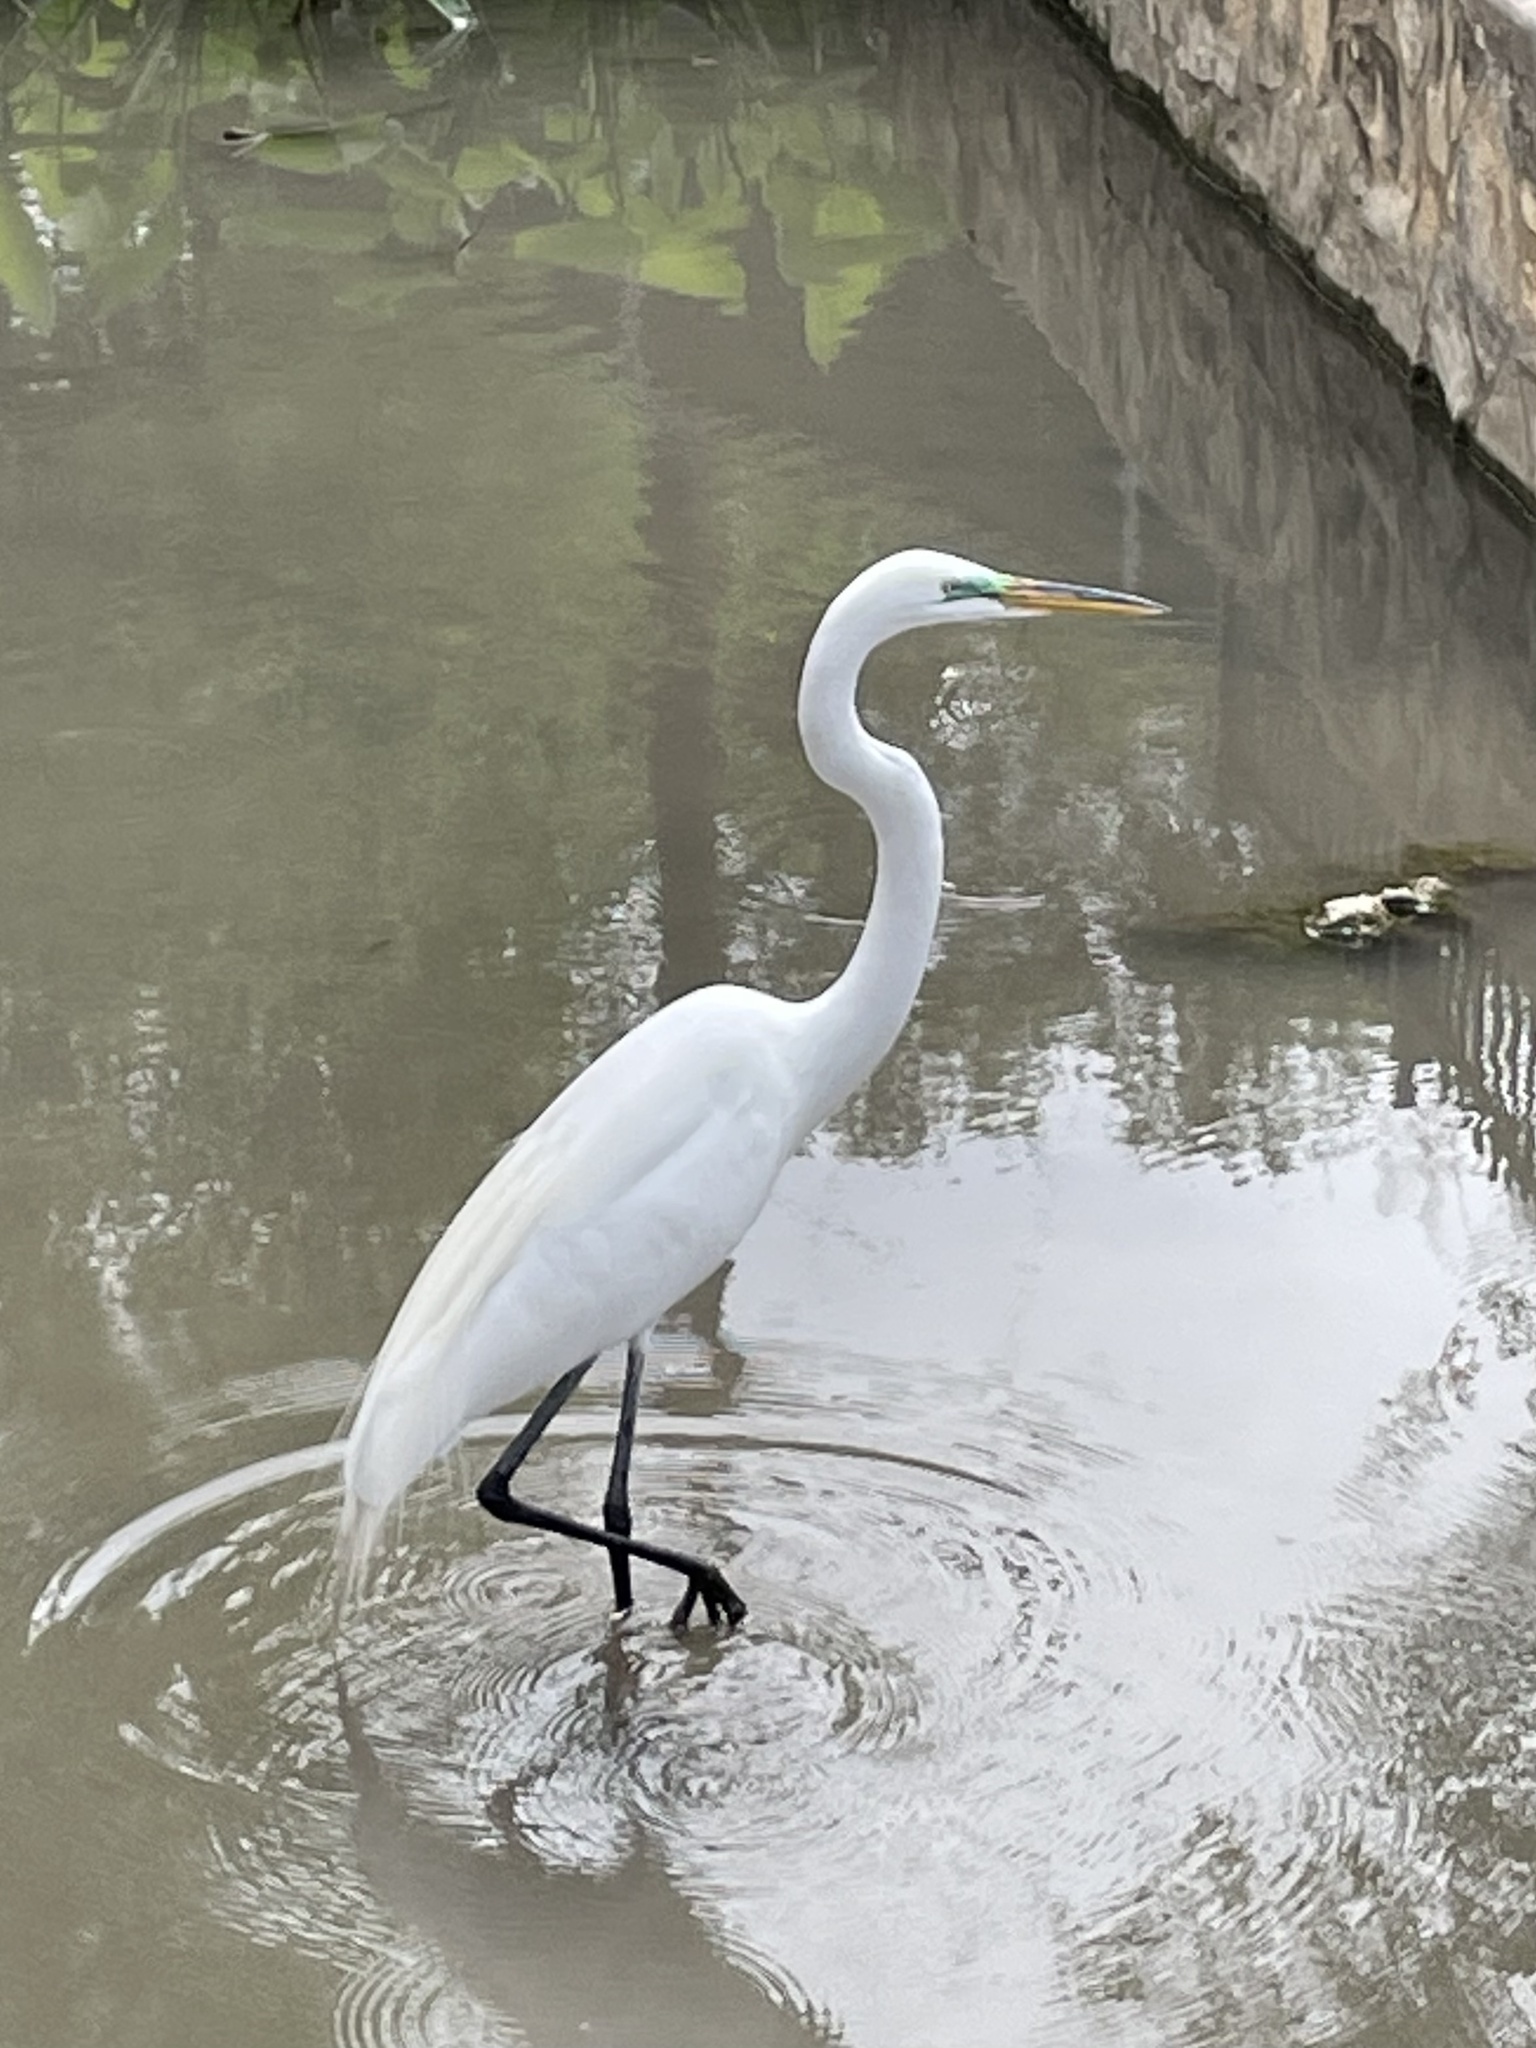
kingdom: Animalia
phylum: Chordata
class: Aves
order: Pelecaniformes
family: Ardeidae
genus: Ardea
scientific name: Ardea alba
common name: Great egret
